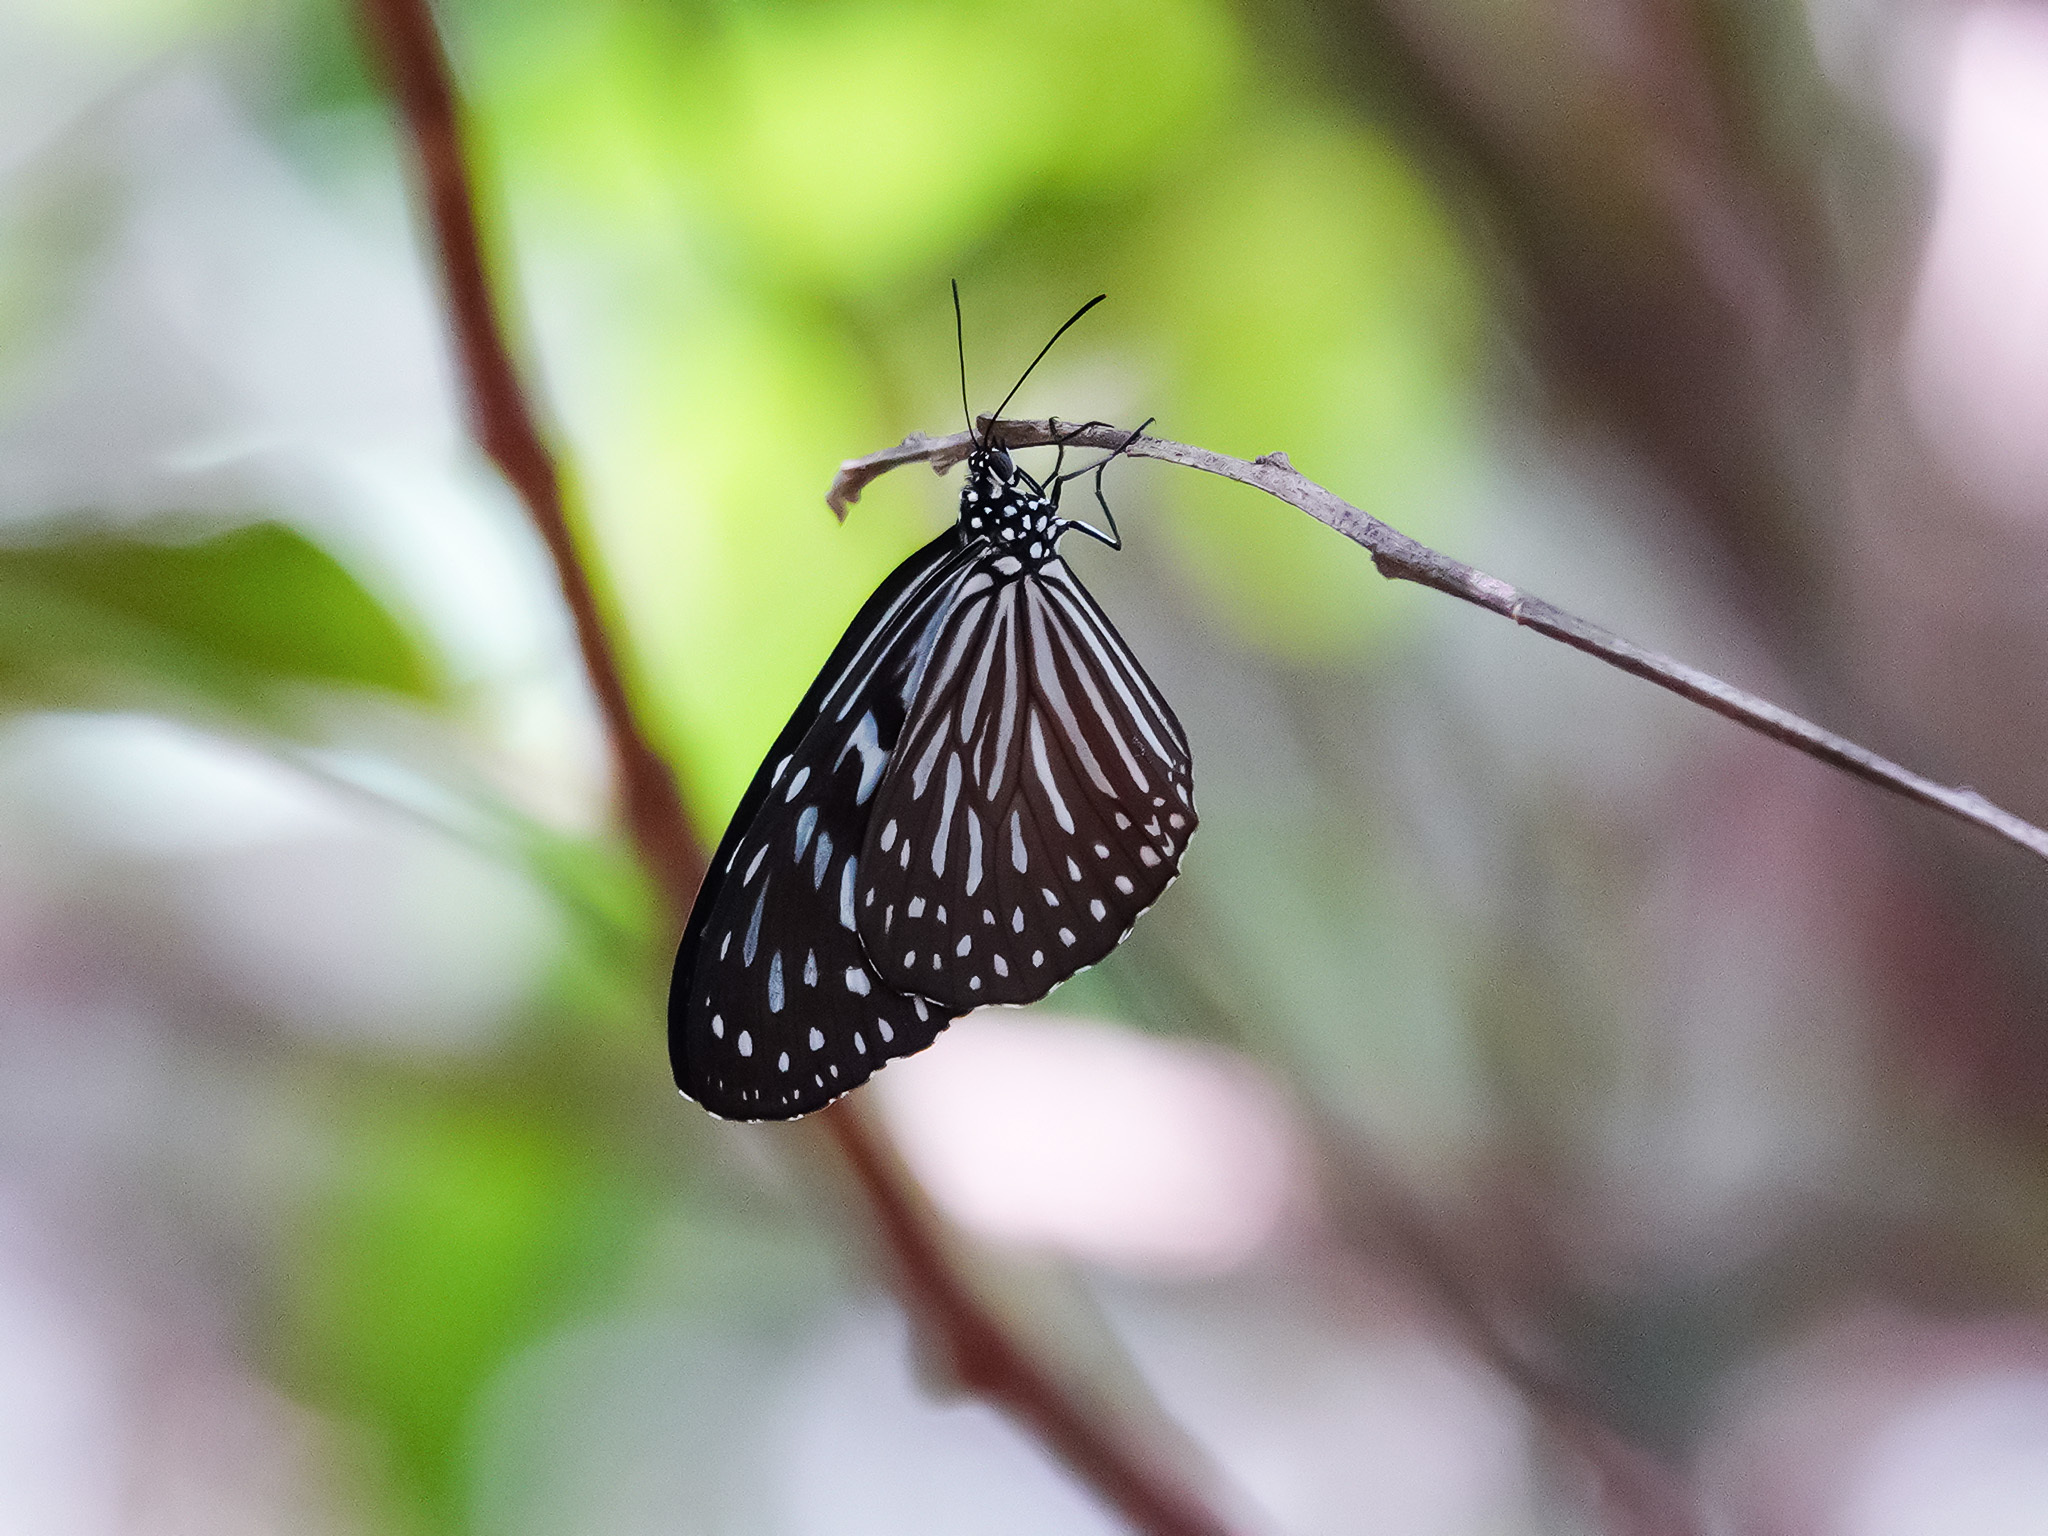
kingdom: Animalia
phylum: Arthropoda
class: Insecta
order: Lepidoptera
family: Nymphalidae
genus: Ideopsis
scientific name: Ideopsis vulgaris
